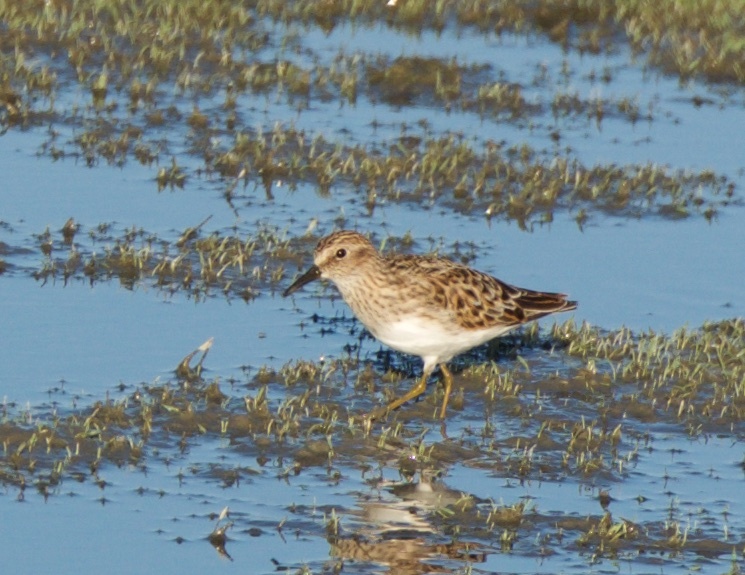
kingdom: Animalia
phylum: Chordata
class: Aves
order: Charadriiformes
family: Scolopacidae
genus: Calidris
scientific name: Calidris minutilla
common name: Least sandpiper
